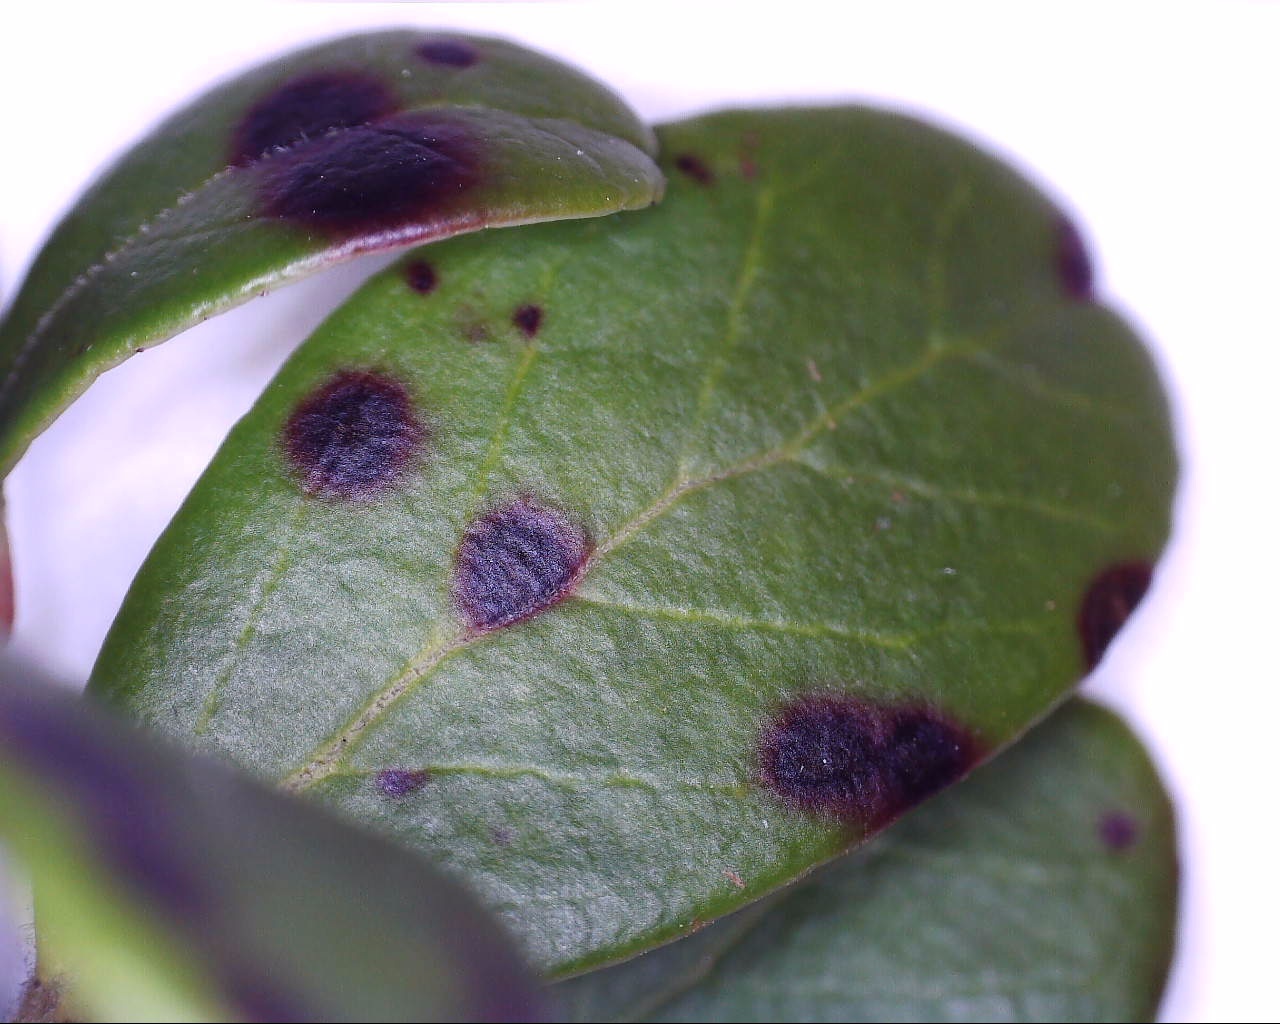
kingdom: Fungi
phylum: Ascomycota
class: Dothideomycetes
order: Mycosphaerellales
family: Mycosphaerellaceae
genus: Mycosphaerella
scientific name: Mycosphaerella stemmatea
